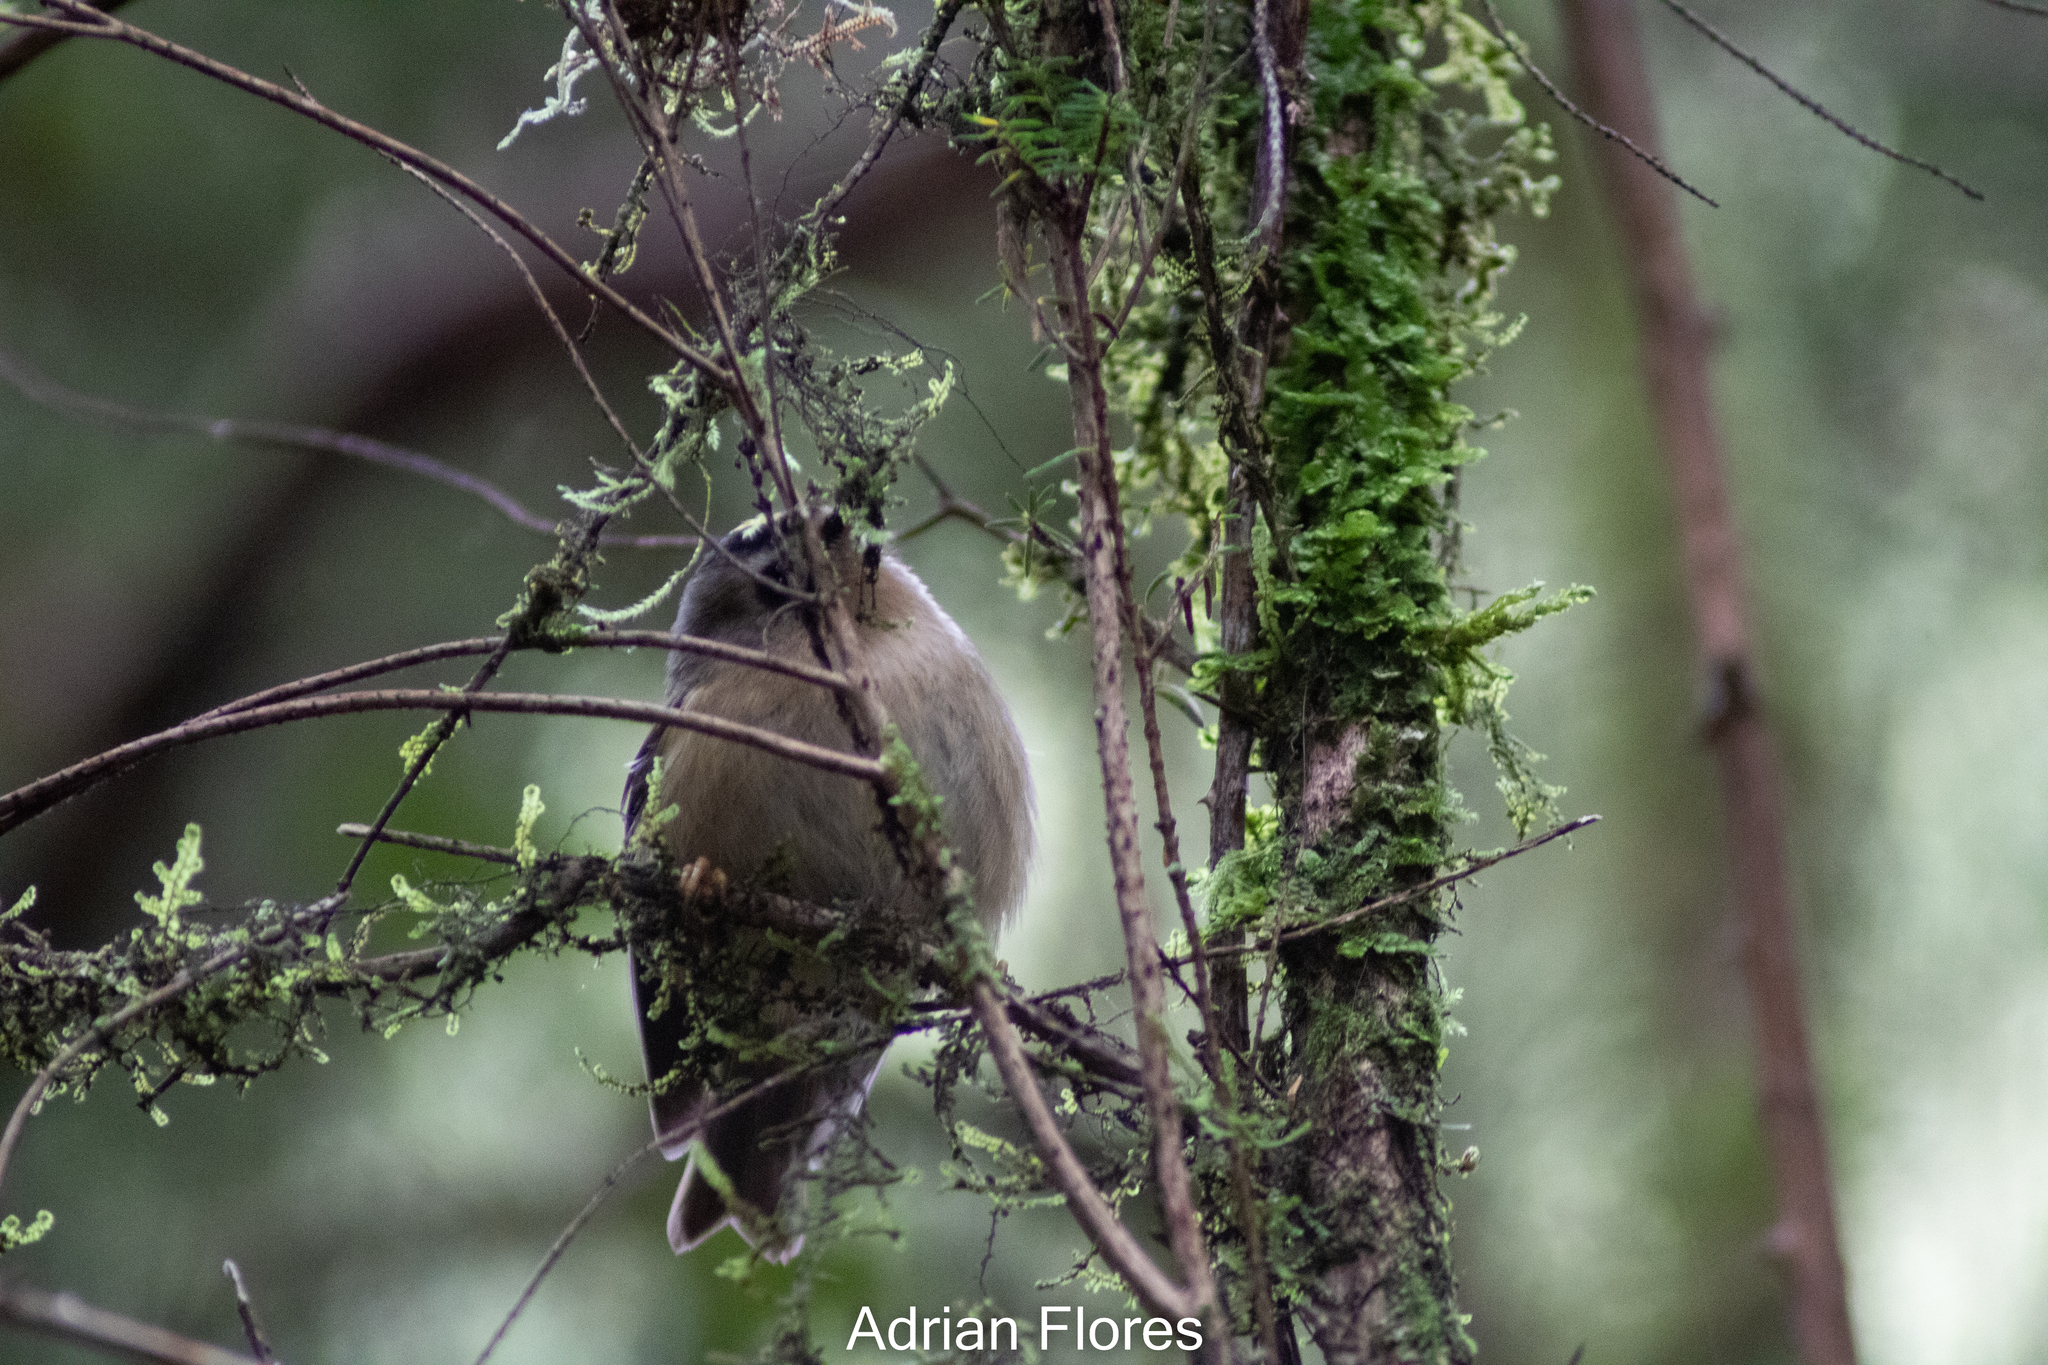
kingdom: Animalia
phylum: Chordata
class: Aves
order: Passeriformes
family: Regulidae
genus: Regulus
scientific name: Regulus regulus
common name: Goldcrest
